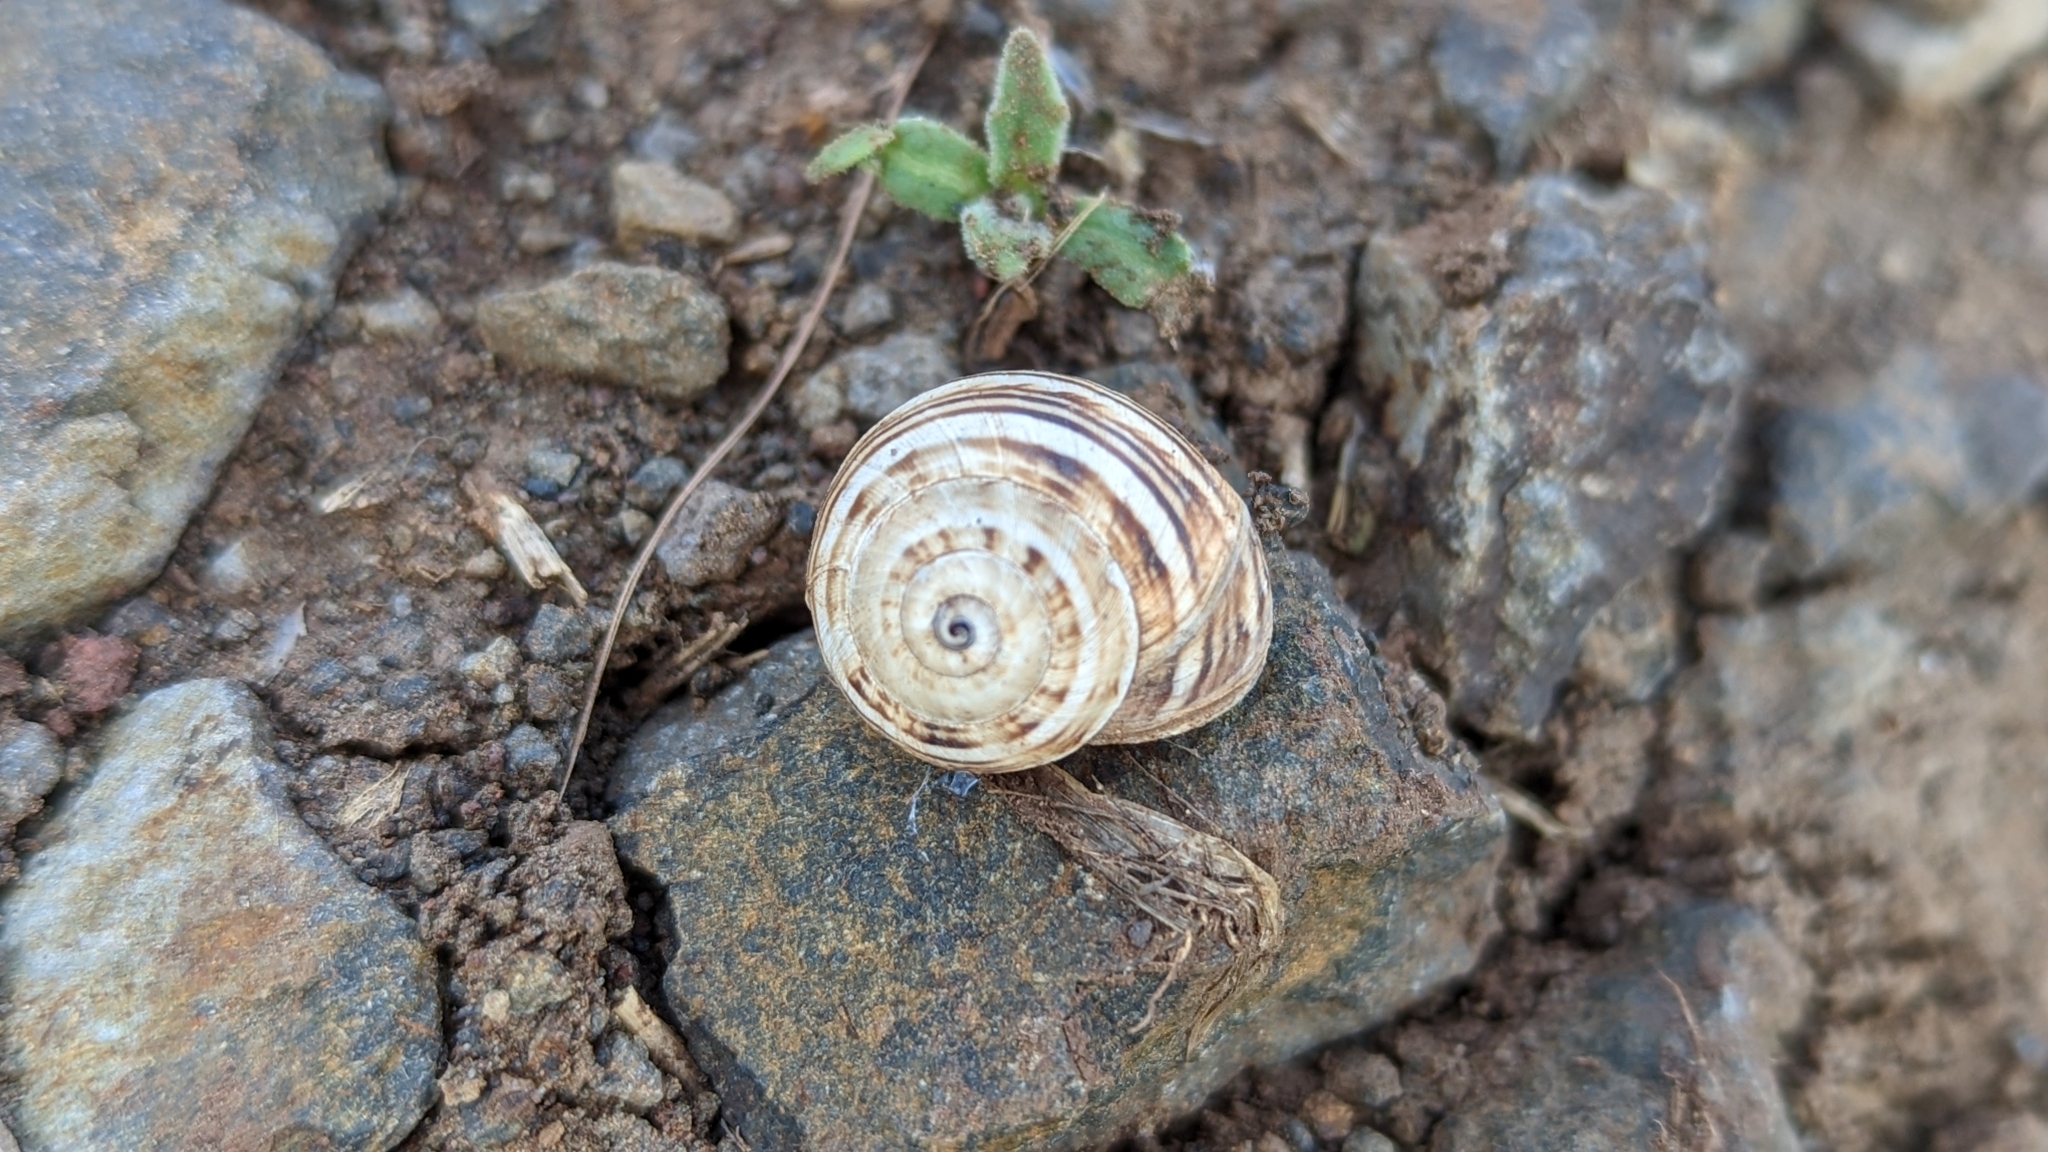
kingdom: Animalia
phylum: Mollusca
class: Gastropoda
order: Stylommatophora
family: Helicidae
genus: Theba
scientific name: Theba pisana
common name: White snail
